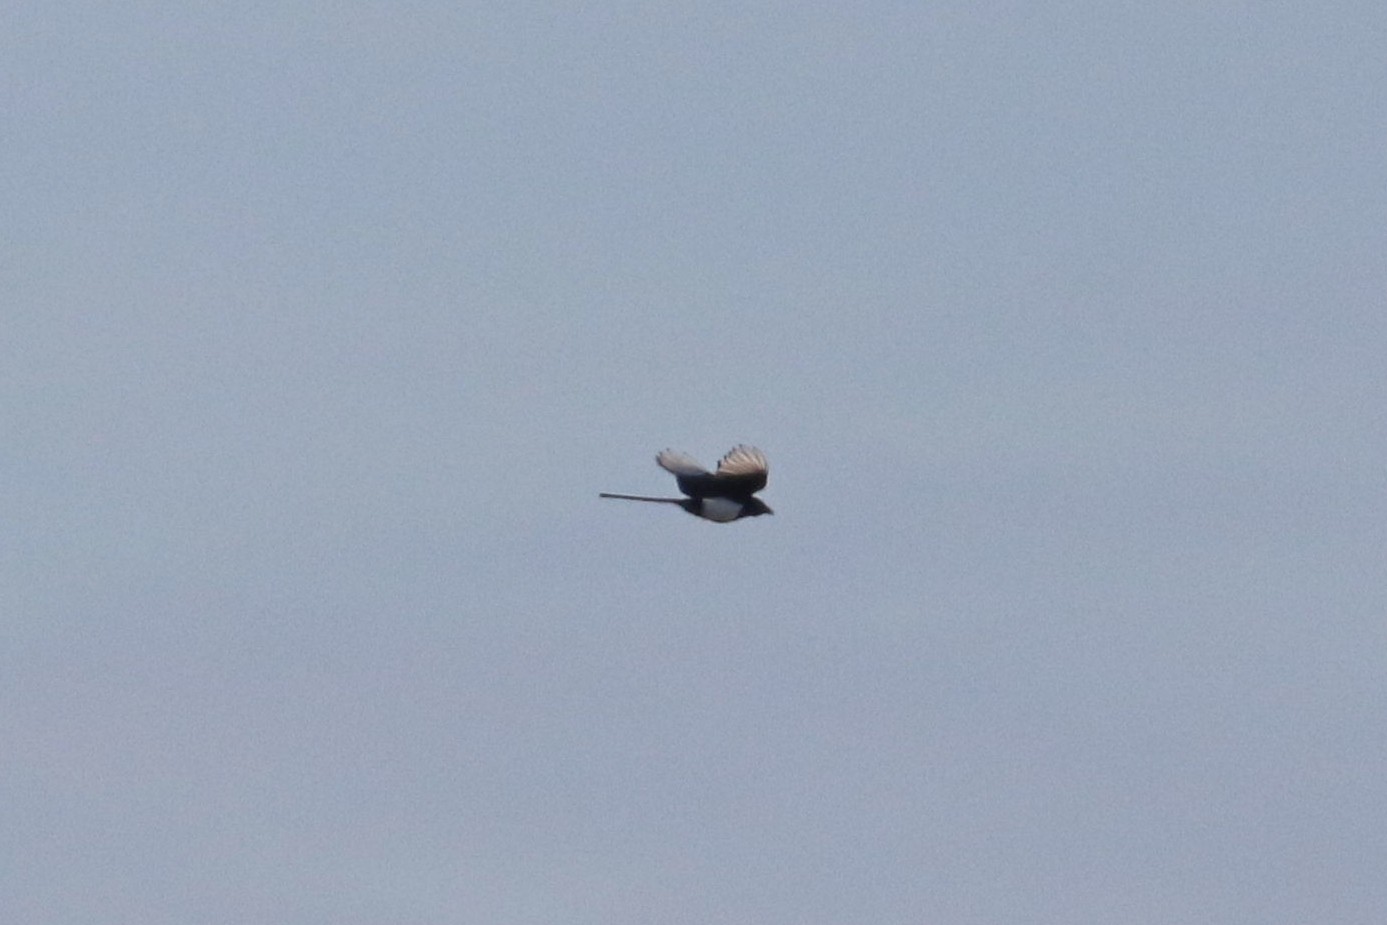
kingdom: Animalia
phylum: Chordata
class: Aves
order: Passeriformes
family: Corvidae
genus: Pica
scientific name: Pica pica
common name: Eurasian magpie
